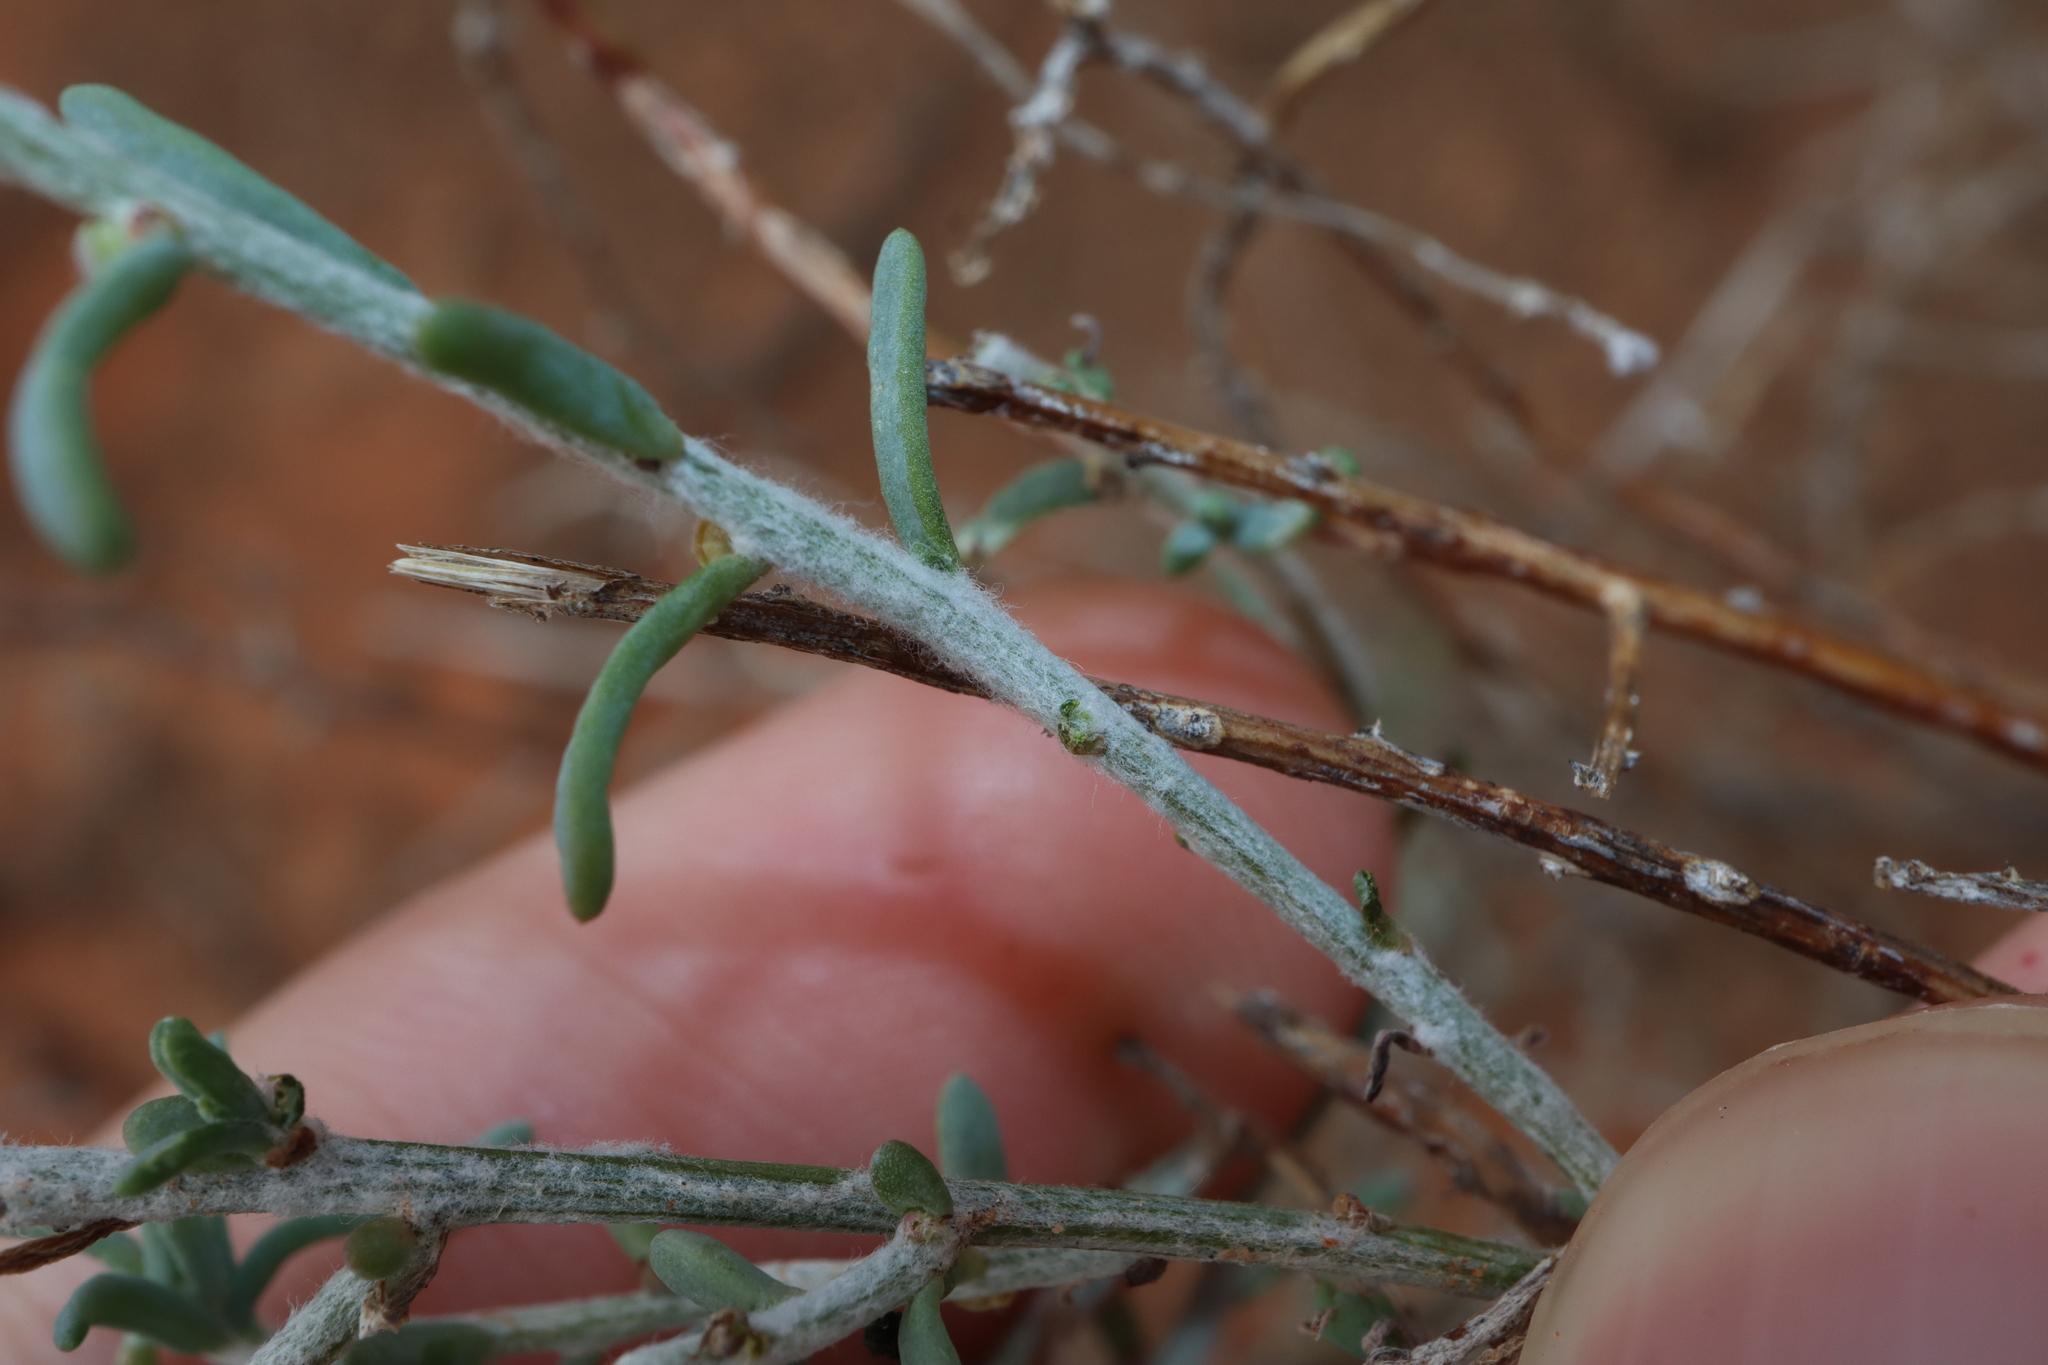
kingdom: Plantae
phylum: Tracheophyta
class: Magnoliopsida
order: Caryophyllales
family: Amaranthaceae
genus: Maireana
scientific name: Maireana microcarpa
